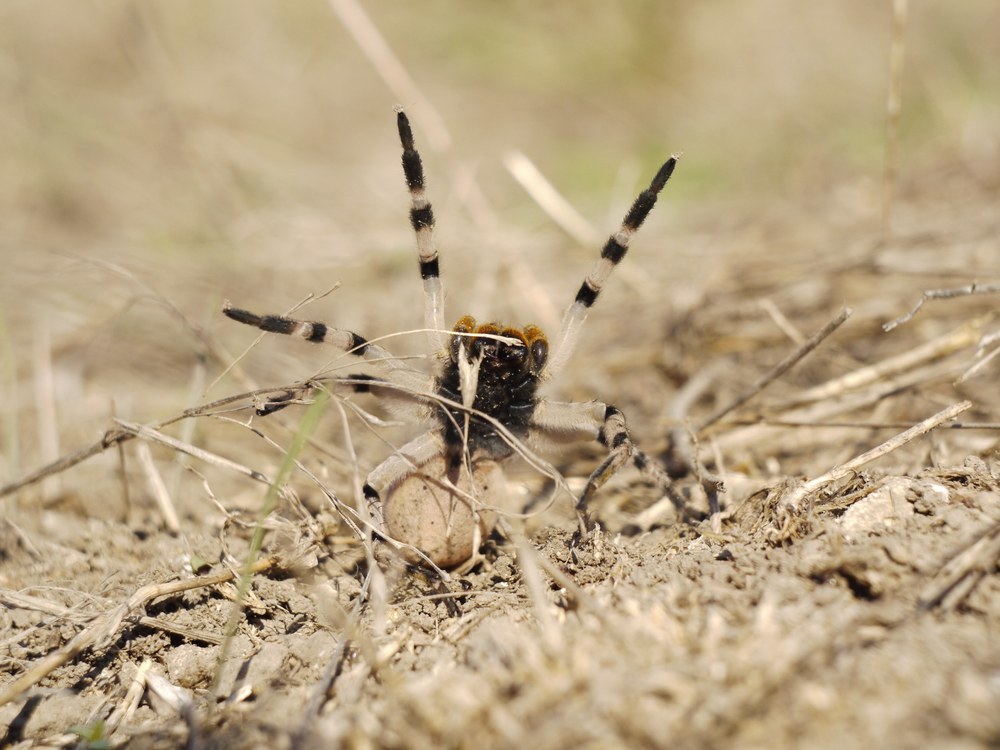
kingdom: Animalia
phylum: Arthropoda
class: Arachnida
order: Araneae
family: Lycosidae
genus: Lycosa
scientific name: Lycosa singoriensis
